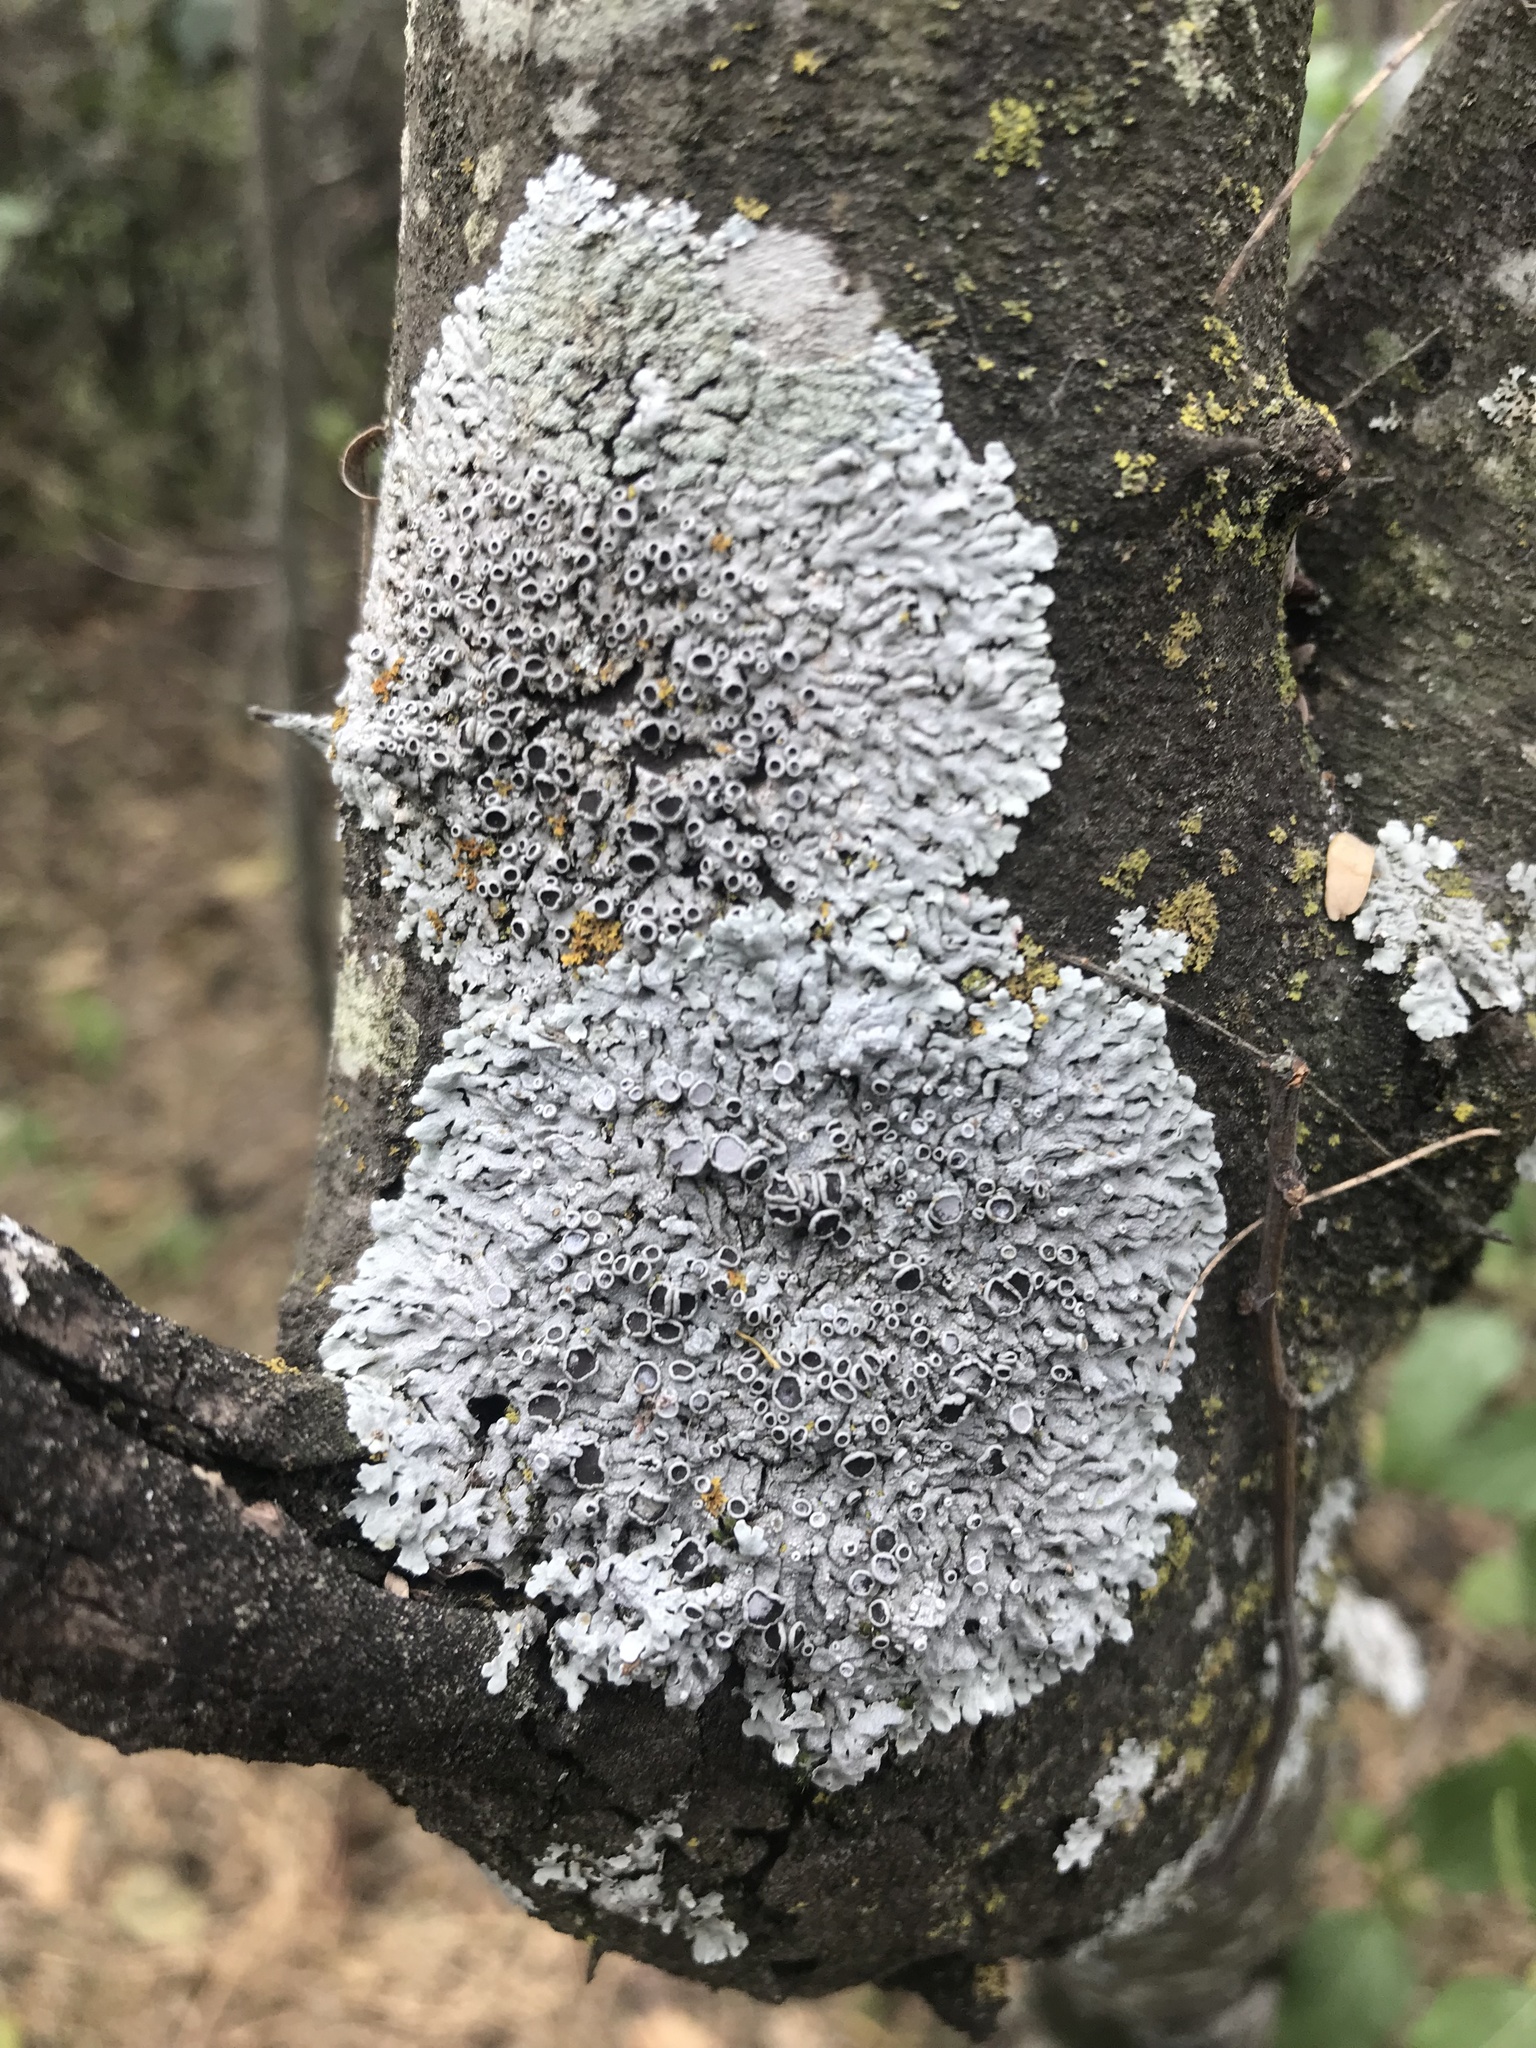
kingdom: Fungi
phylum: Ascomycota
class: Lecanoromycetes
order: Caliciales
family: Physciaceae
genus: Physcia
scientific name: Physcia aipolia
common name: Hoary rosette lichen
